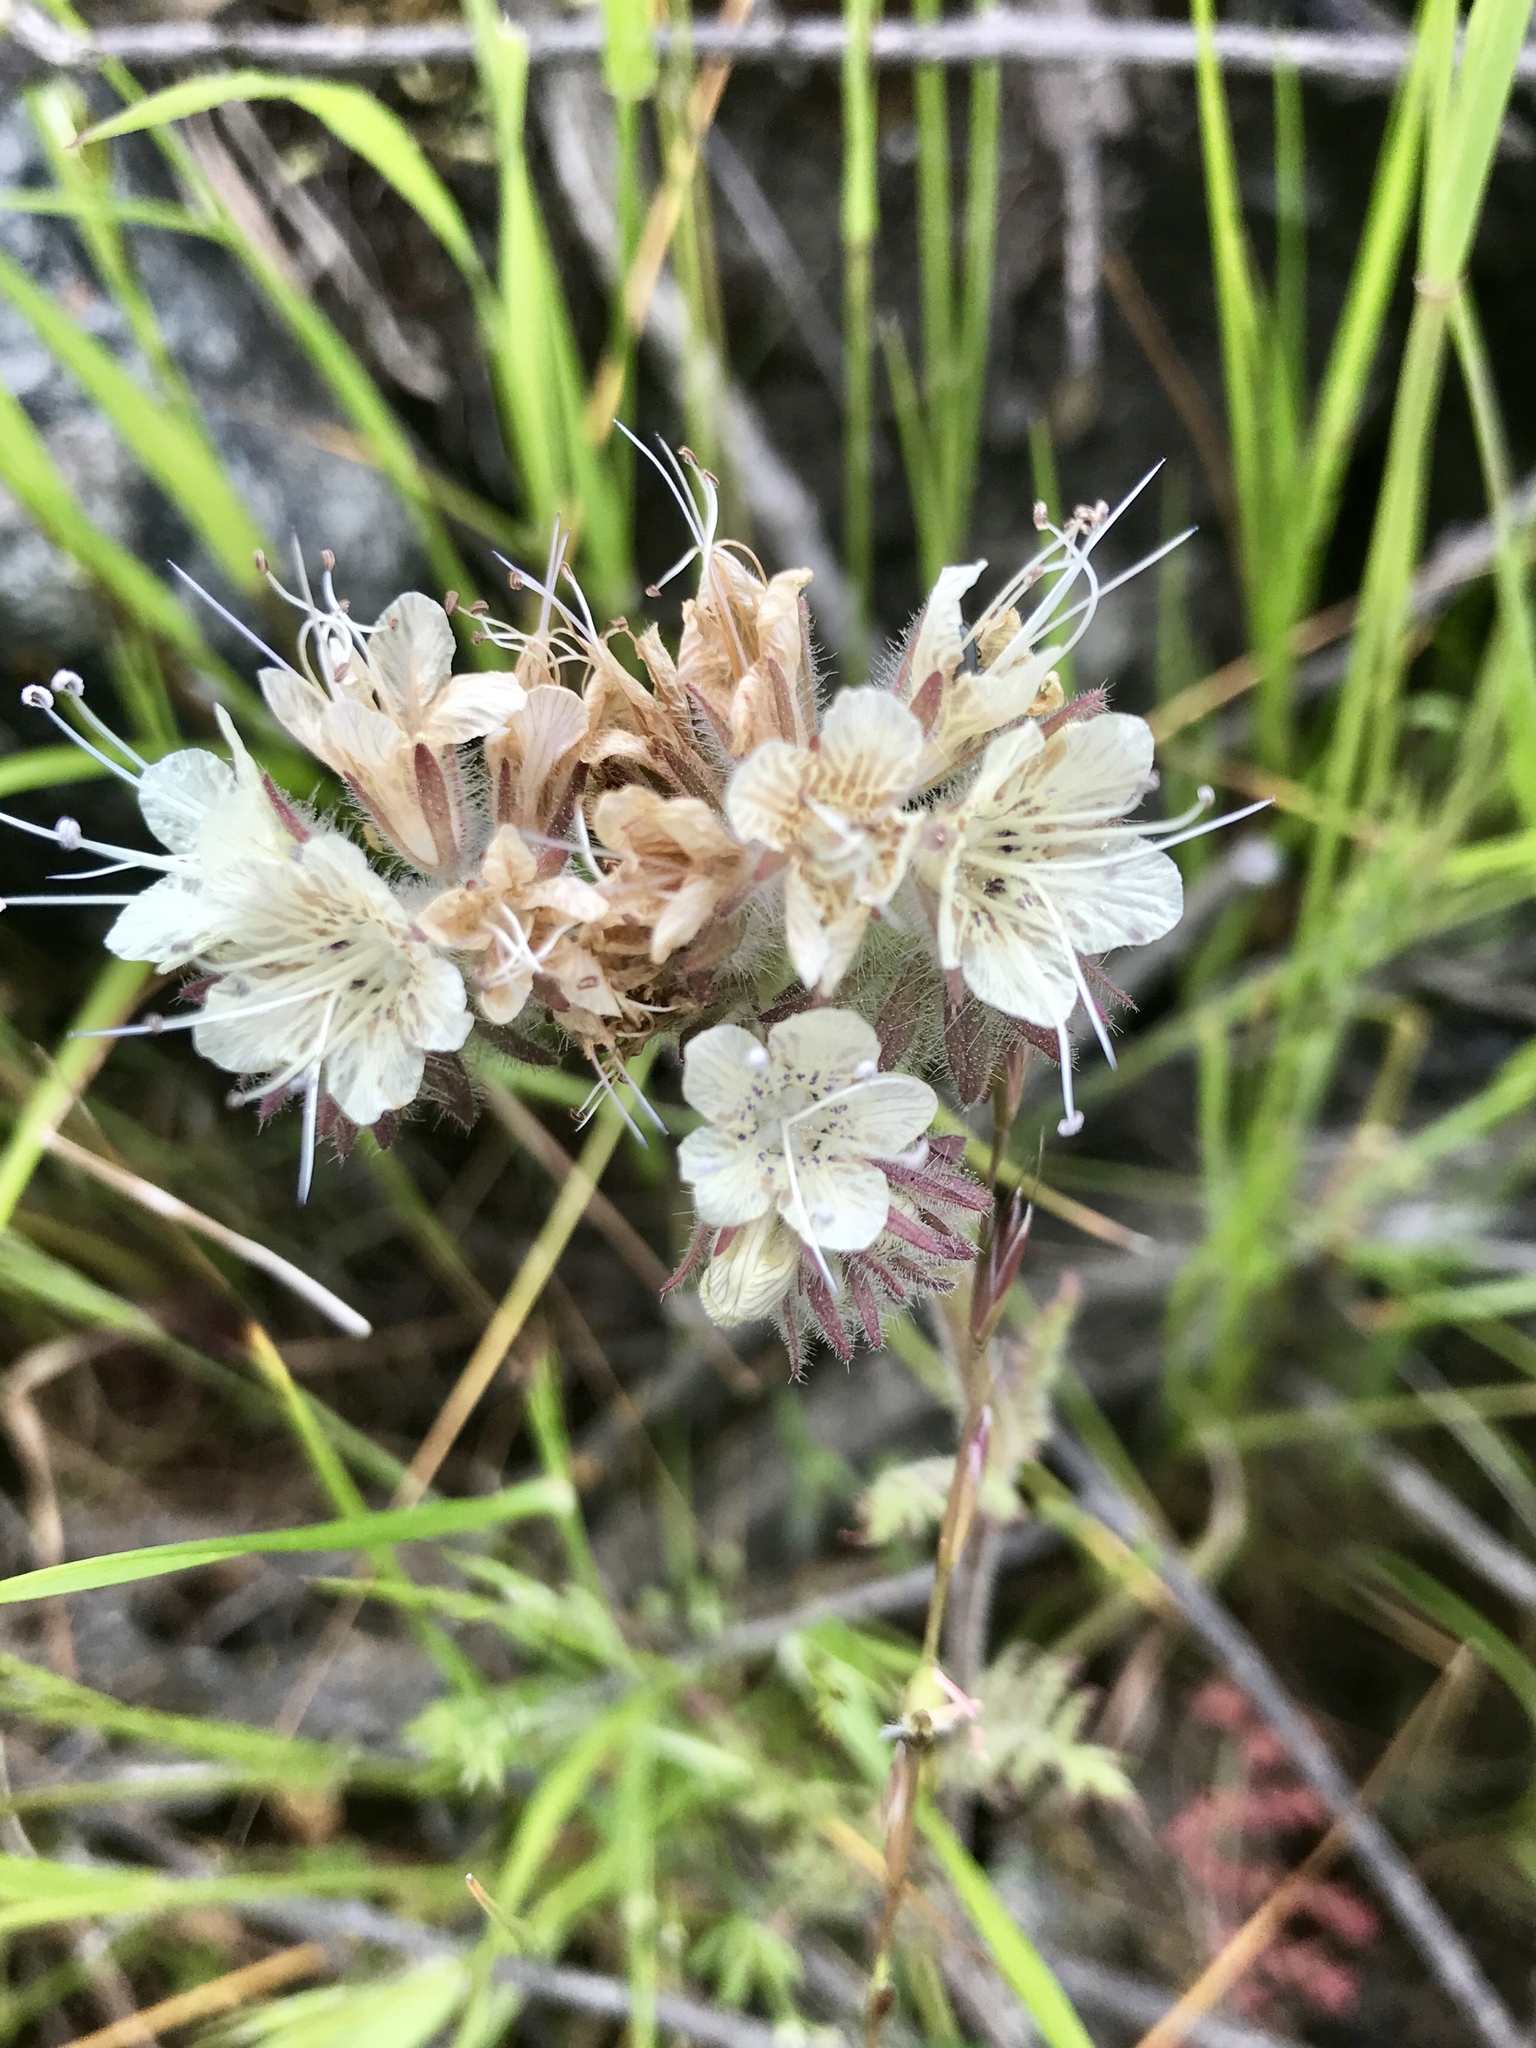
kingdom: Plantae
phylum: Tracheophyta
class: Magnoliopsida
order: Boraginales
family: Hydrophyllaceae
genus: Phacelia
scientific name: Phacelia distans
